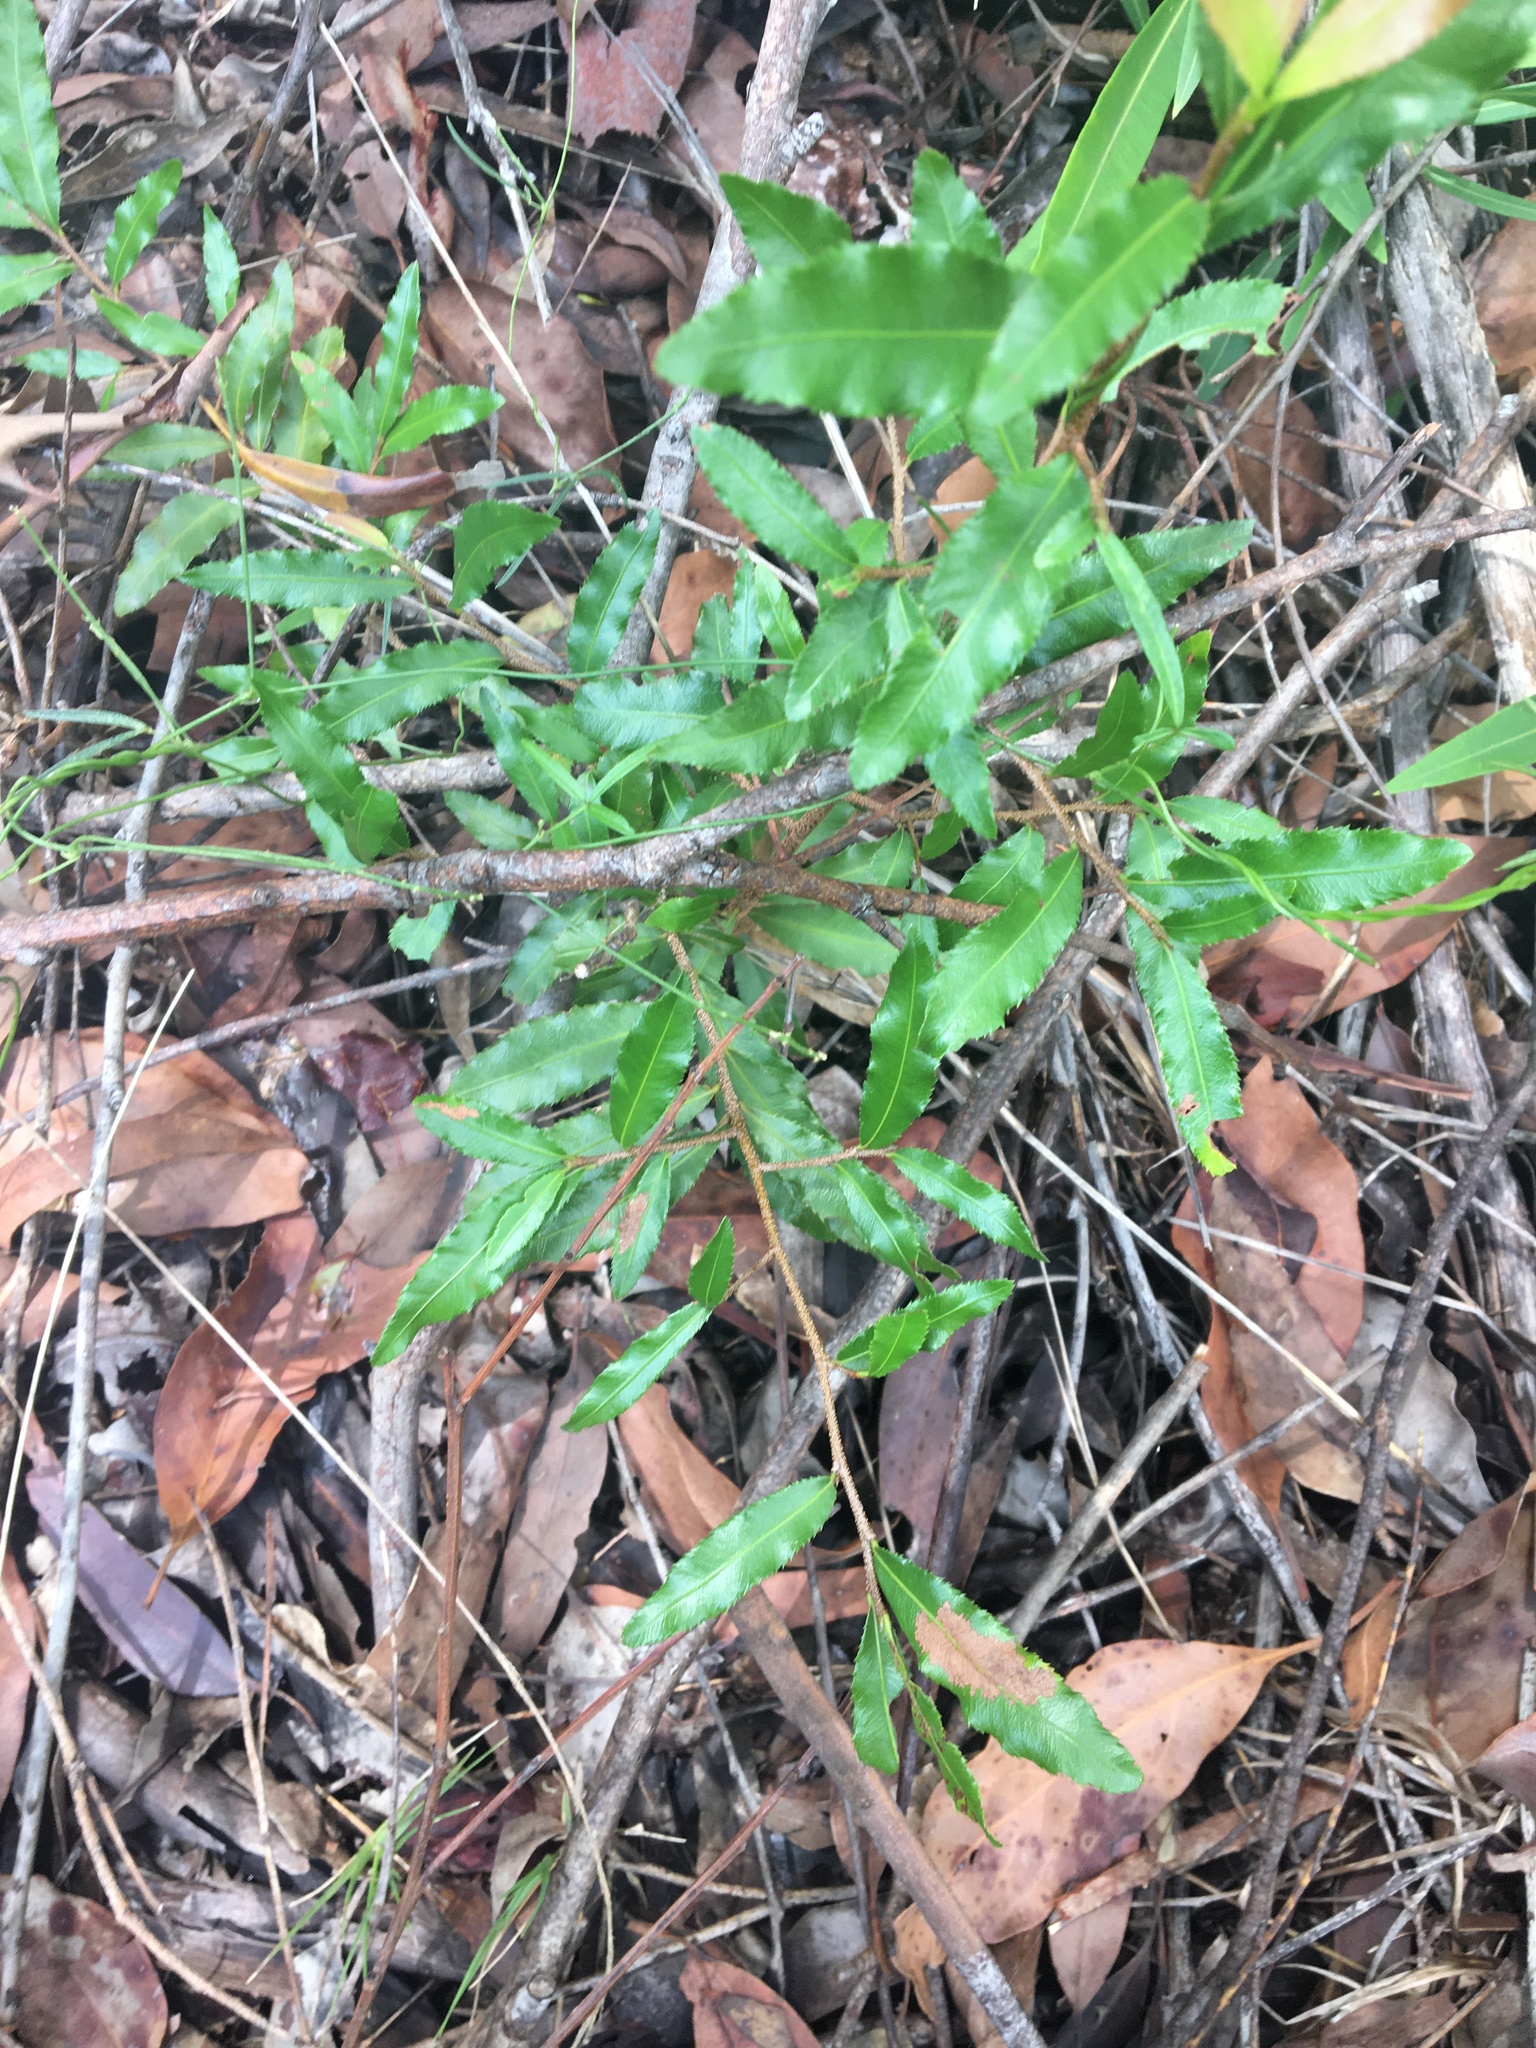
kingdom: Plantae
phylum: Tracheophyta
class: Magnoliopsida
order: Malpighiales
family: Ochnaceae
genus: Ochna
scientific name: Ochna serrulata
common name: Mickey mouse plant
